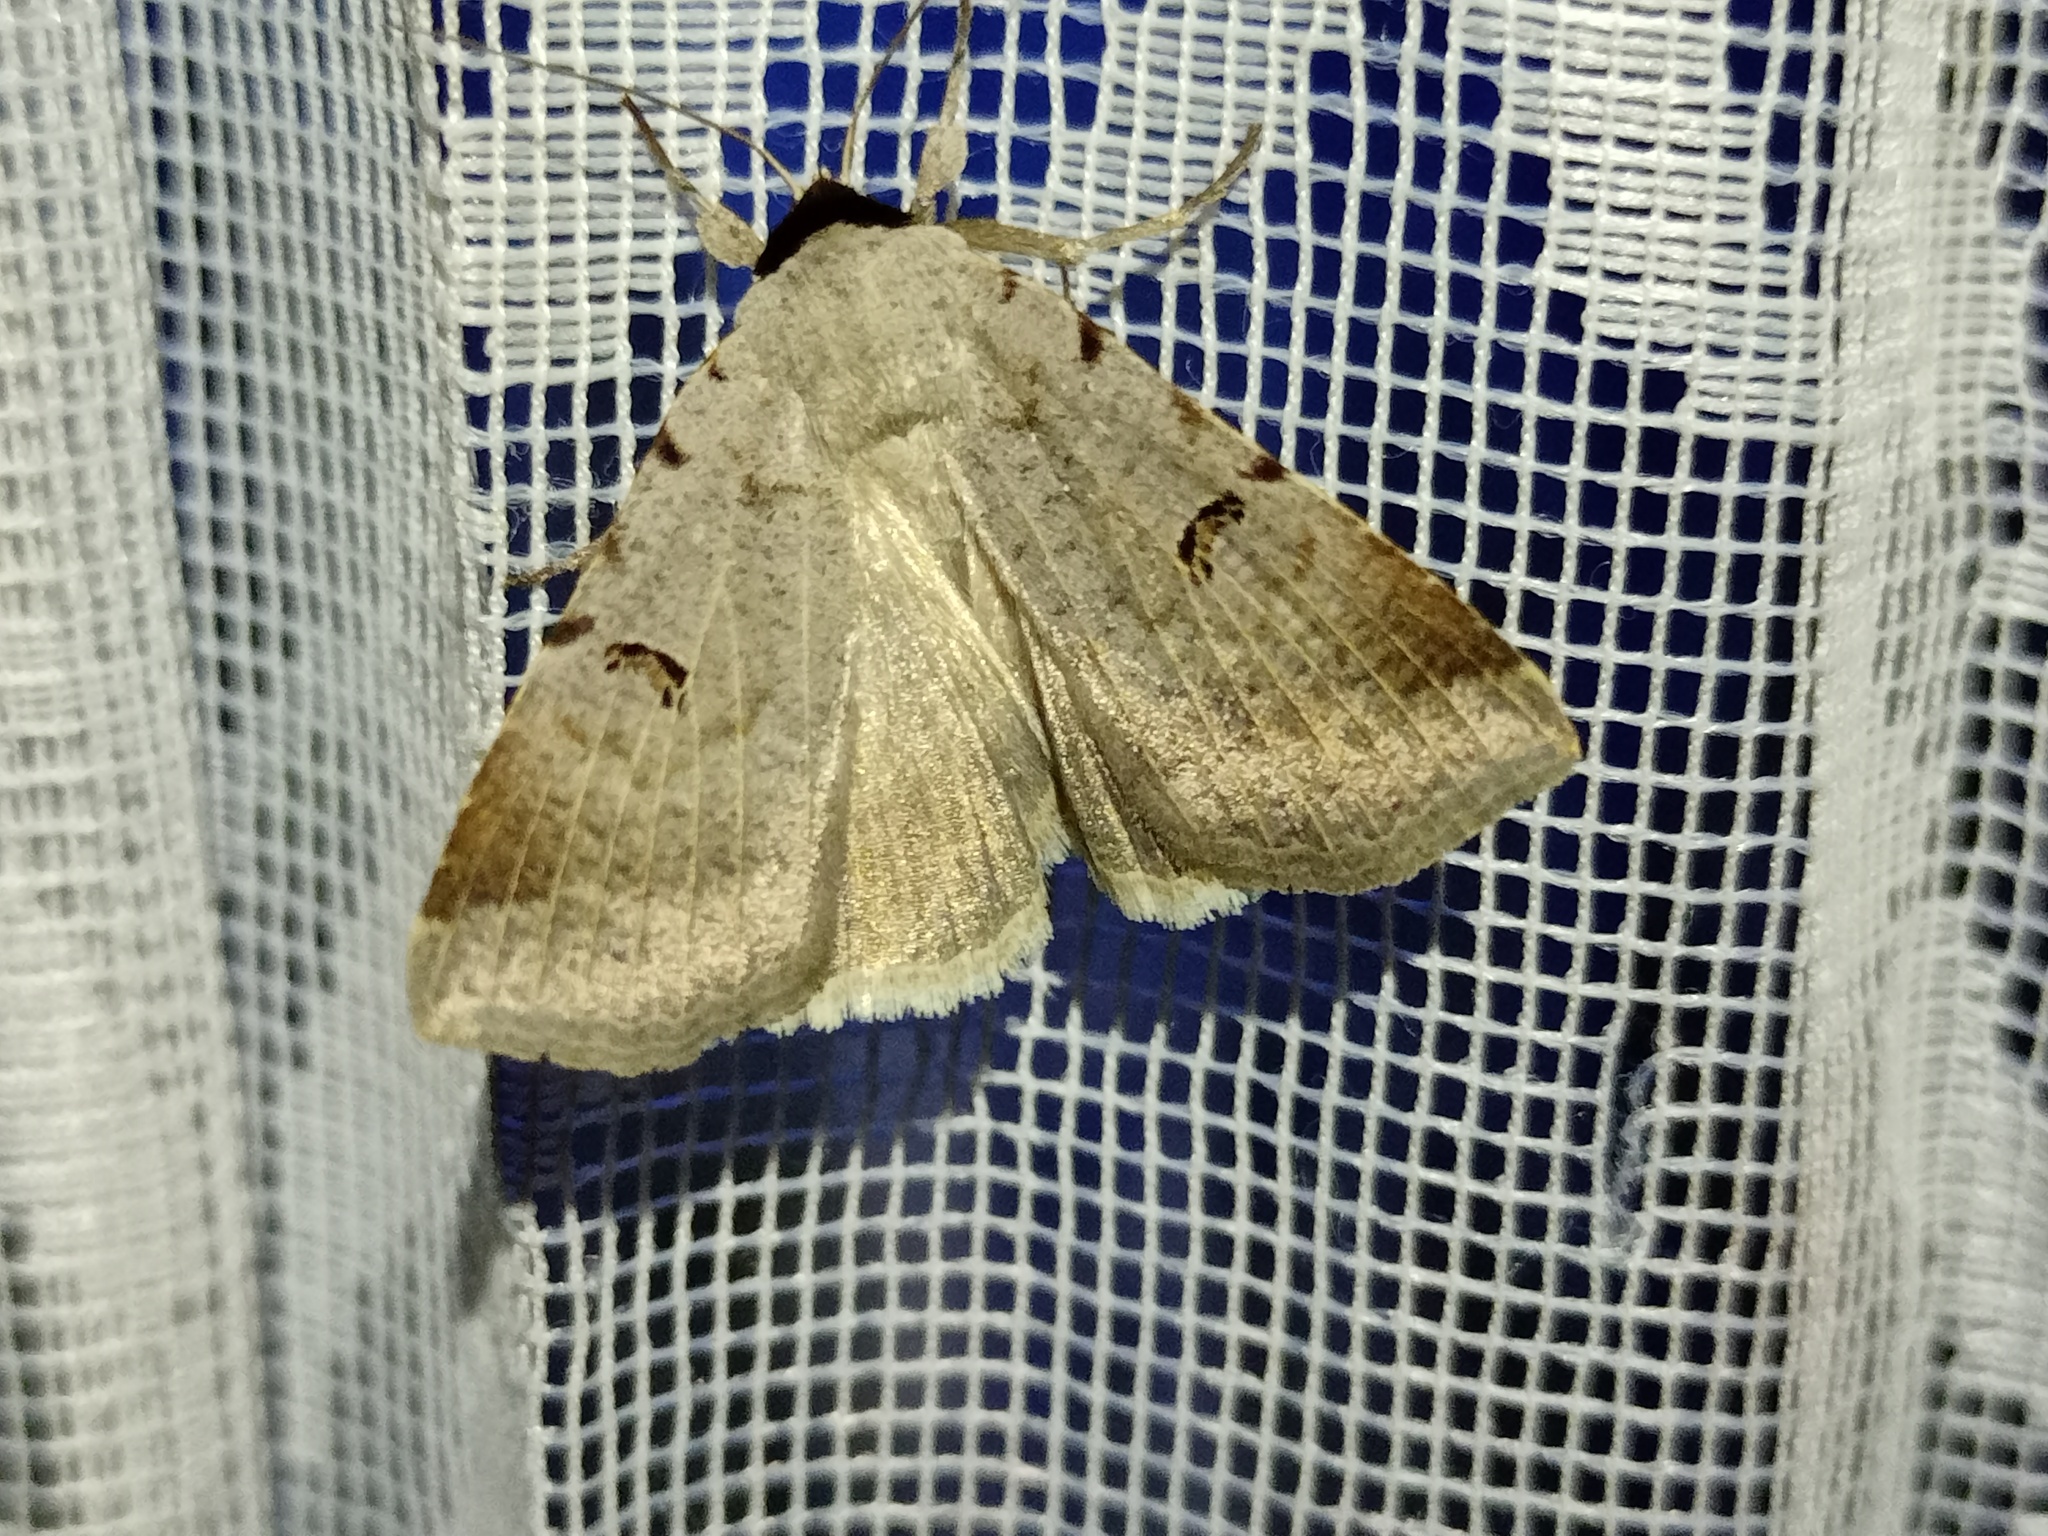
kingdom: Animalia
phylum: Arthropoda
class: Insecta
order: Lepidoptera
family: Erebidae
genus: Lygephila
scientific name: Lygephila craccae
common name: Scarce blackneck
